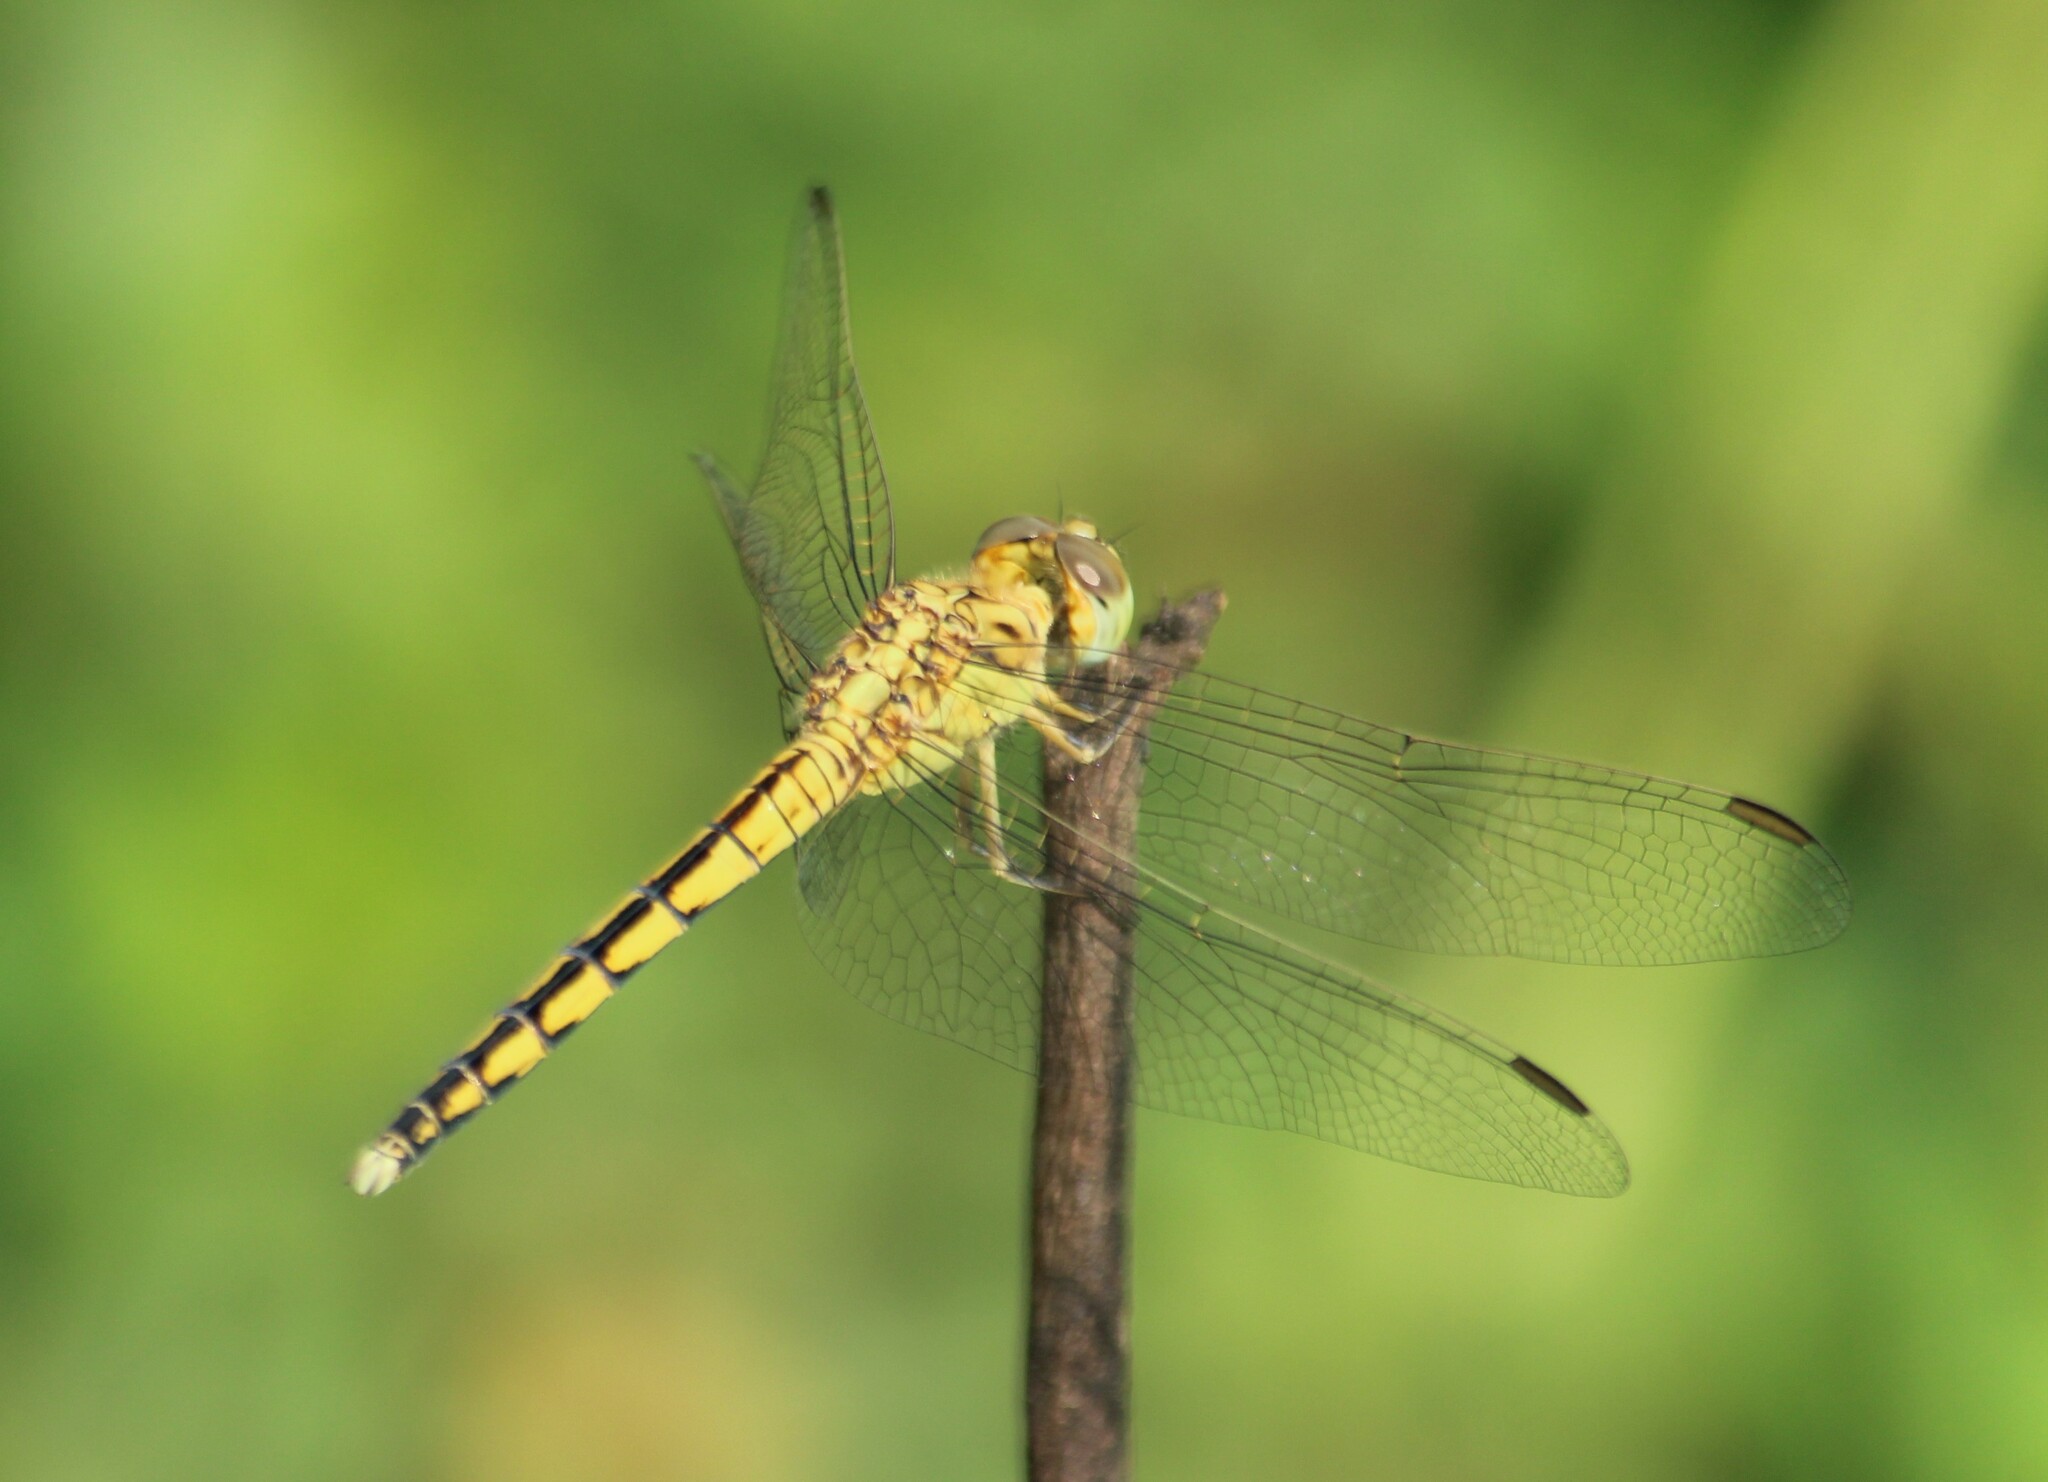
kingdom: Animalia
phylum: Arthropoda
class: Insecta
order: Odonata
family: Libellulidae
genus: Indothemis
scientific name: Indothemis carnatica
